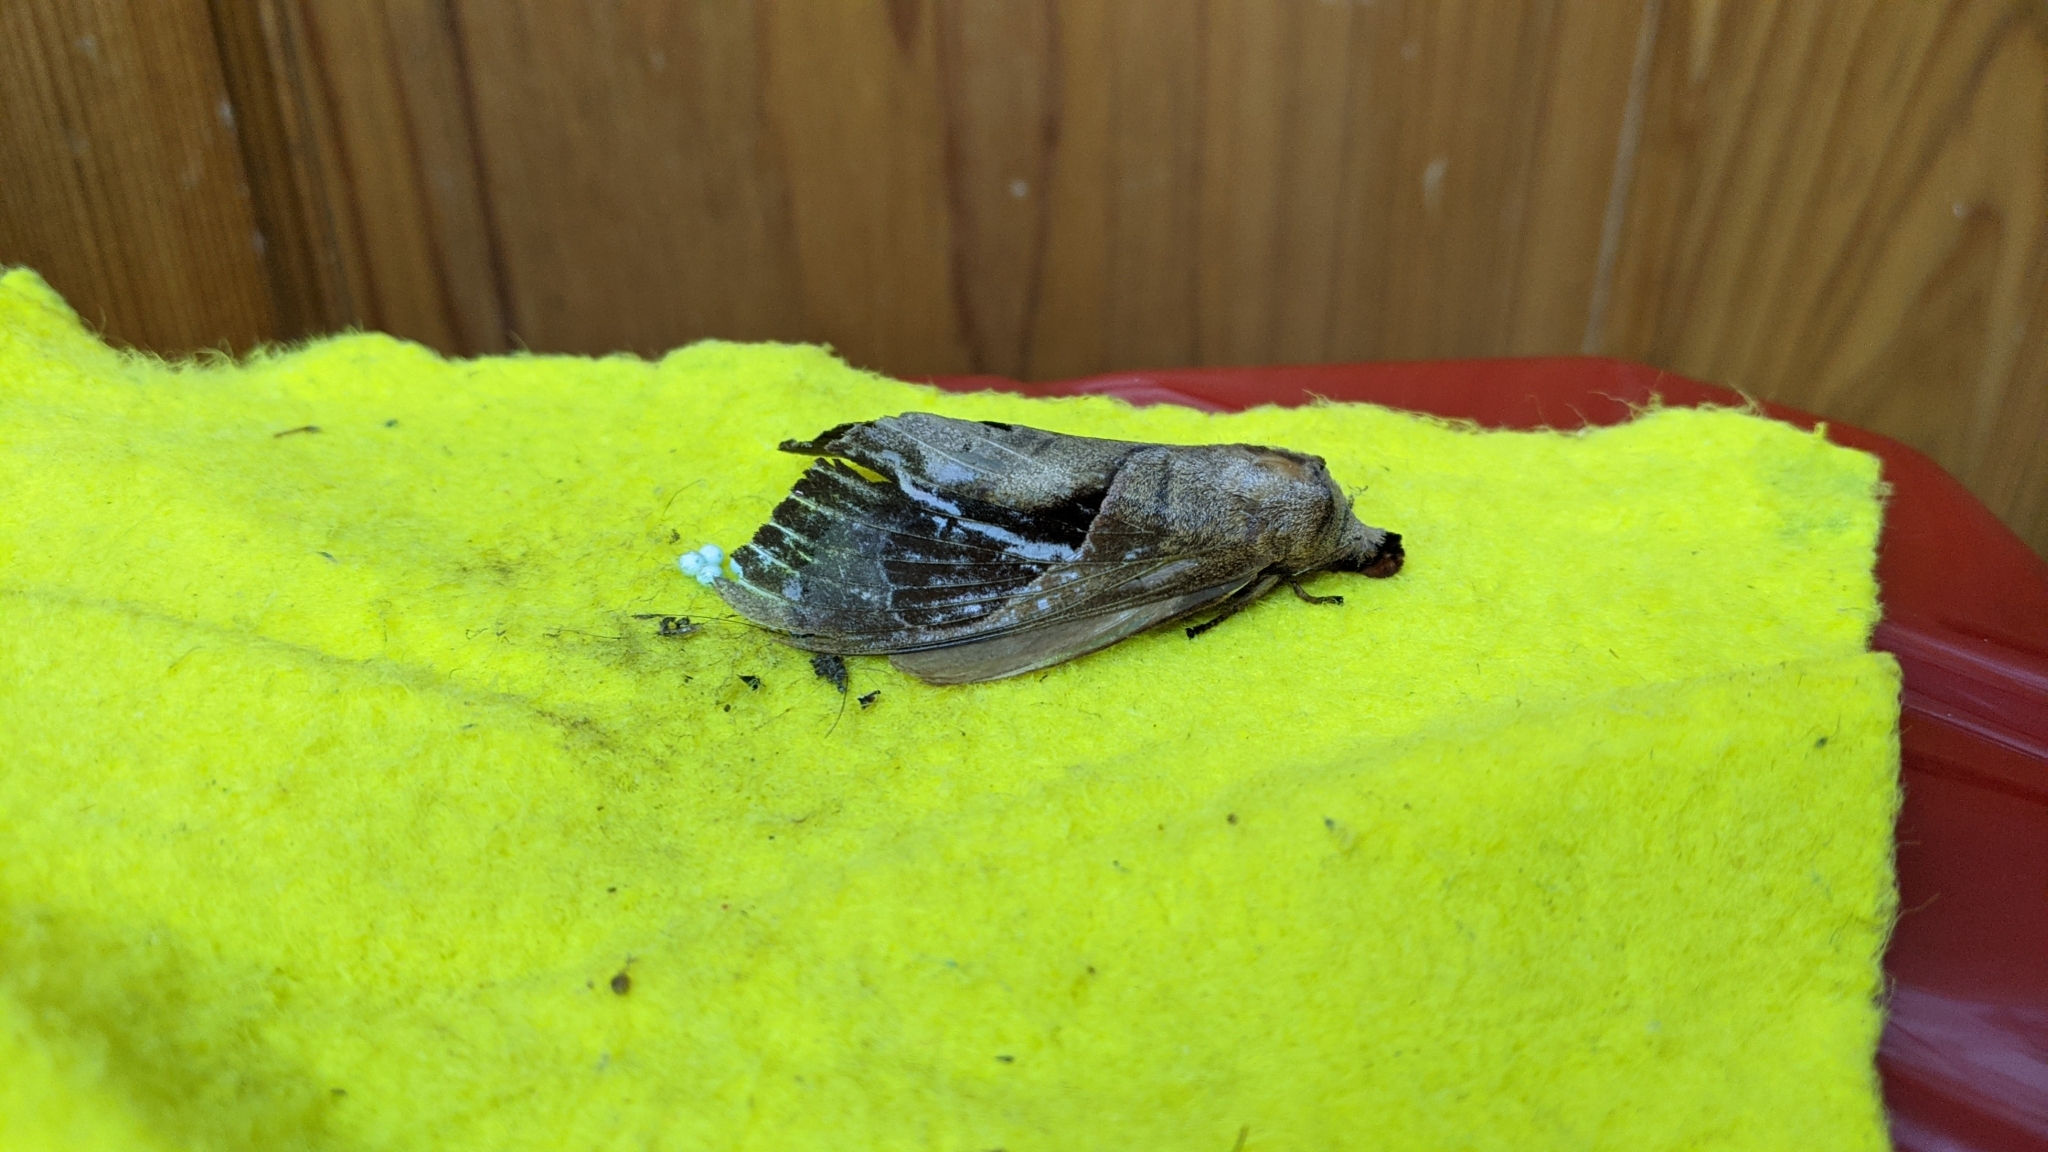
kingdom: Animalia
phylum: Arthropoda
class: Insecta
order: Lepidoptera
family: Lasiocampidae
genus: Paralebeda
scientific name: Paralebeda femorata
